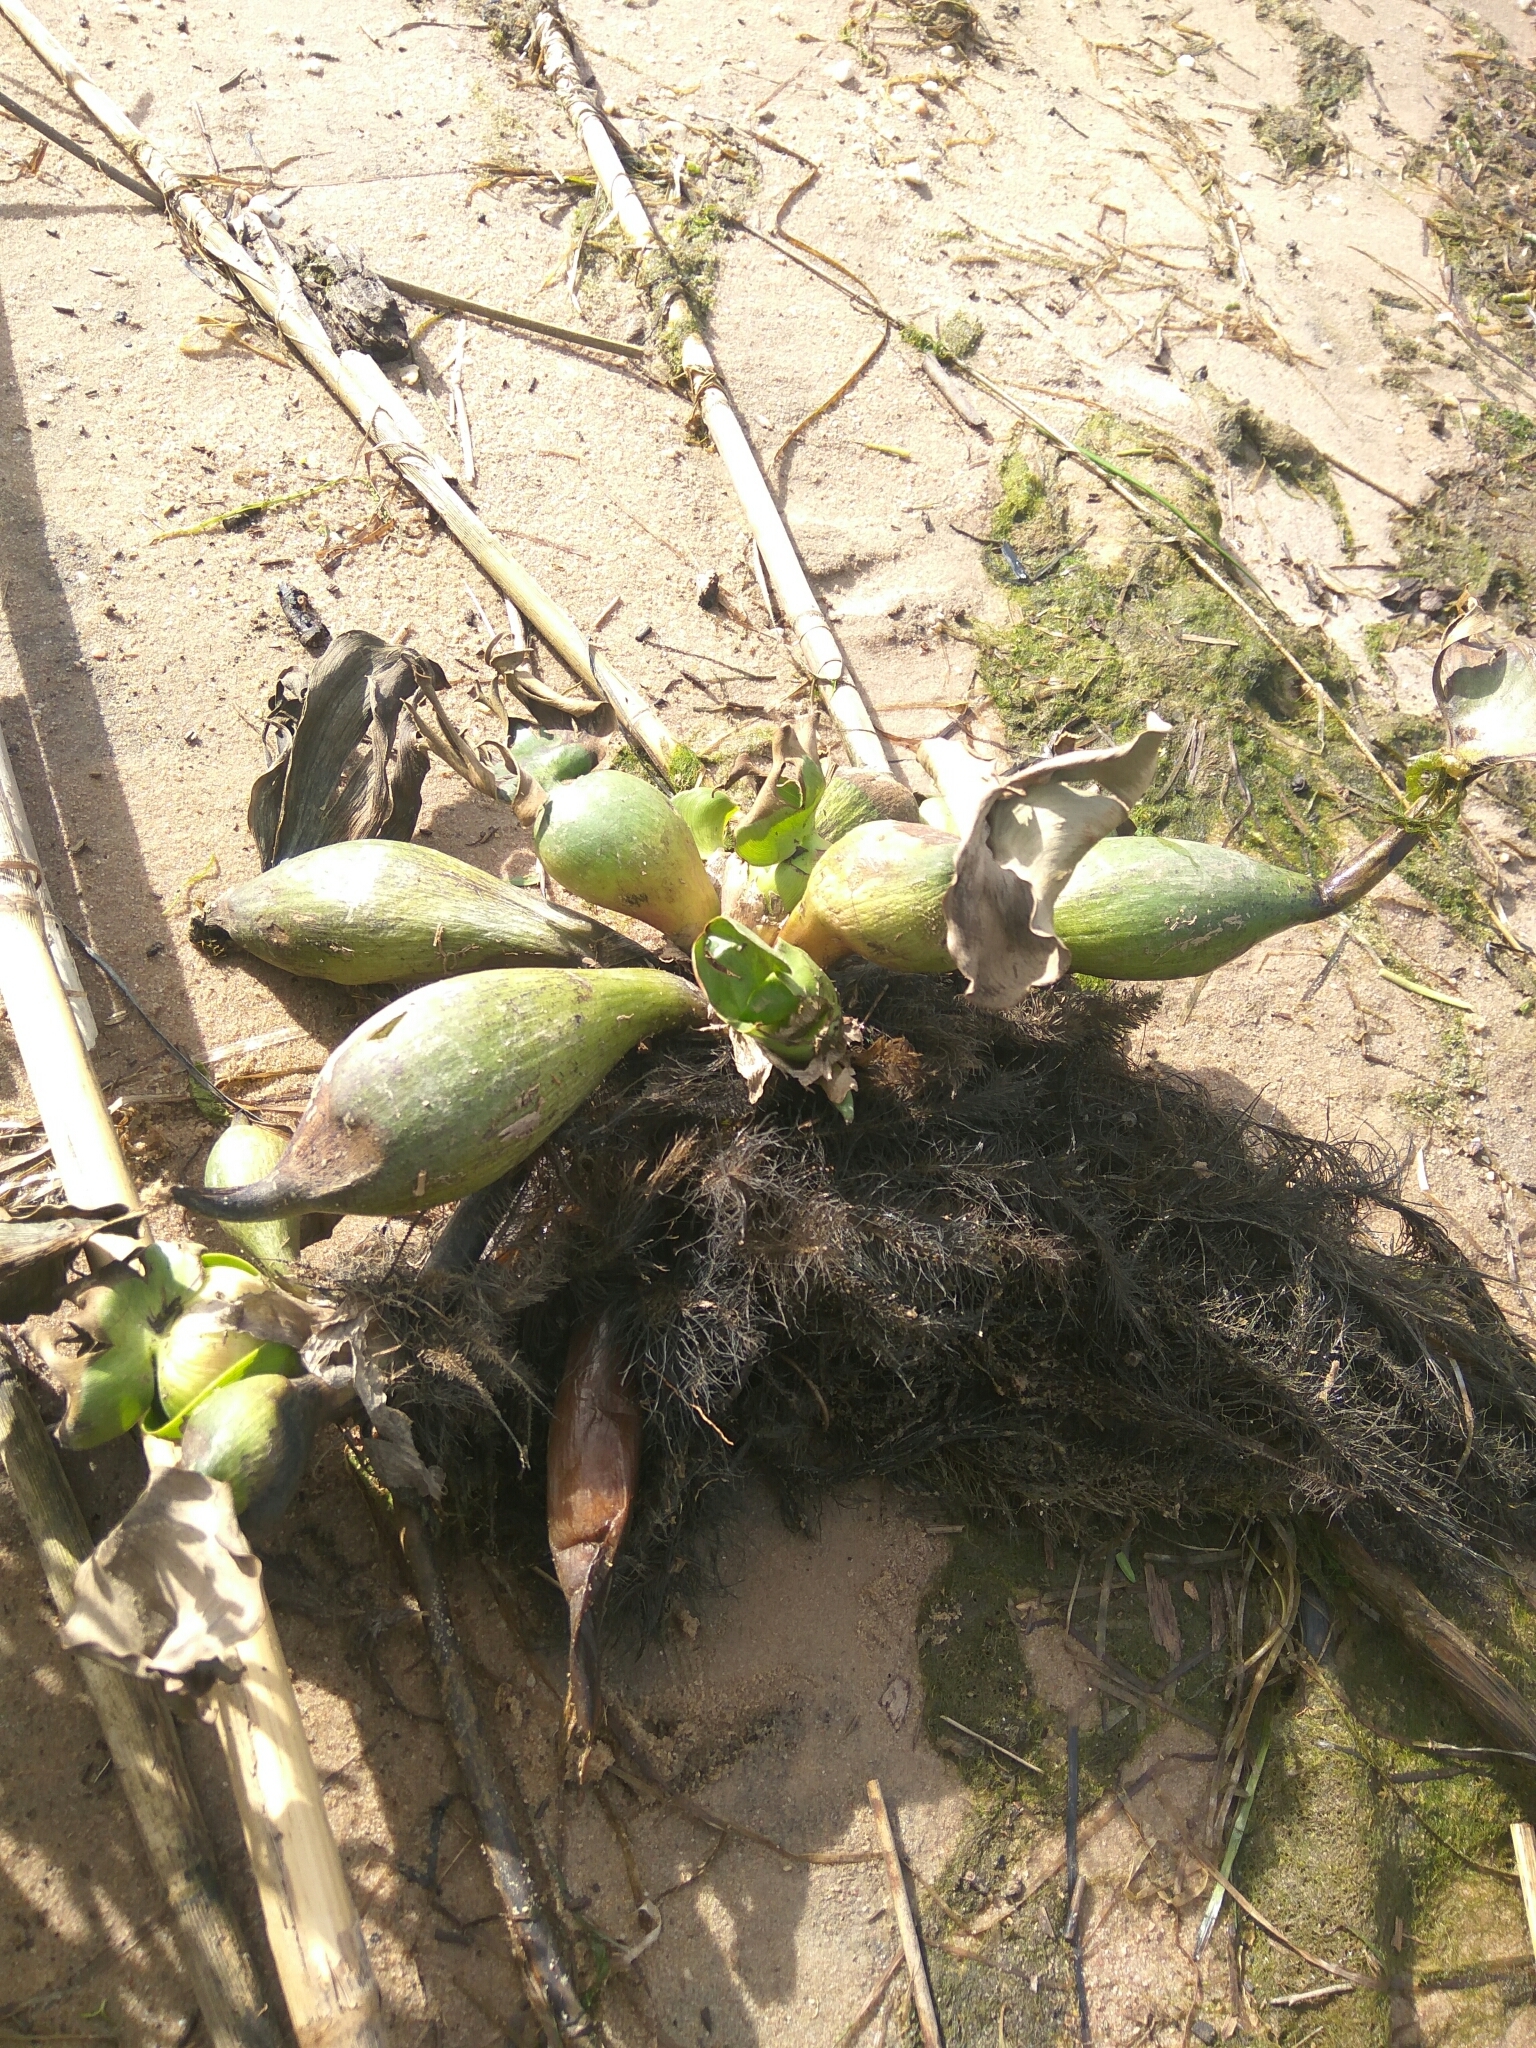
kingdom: Plantae
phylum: Tracheophyta
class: Liliopsida
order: Commelinales
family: Pontederiaceae
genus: Pontederia
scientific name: Pontederia crassipes
